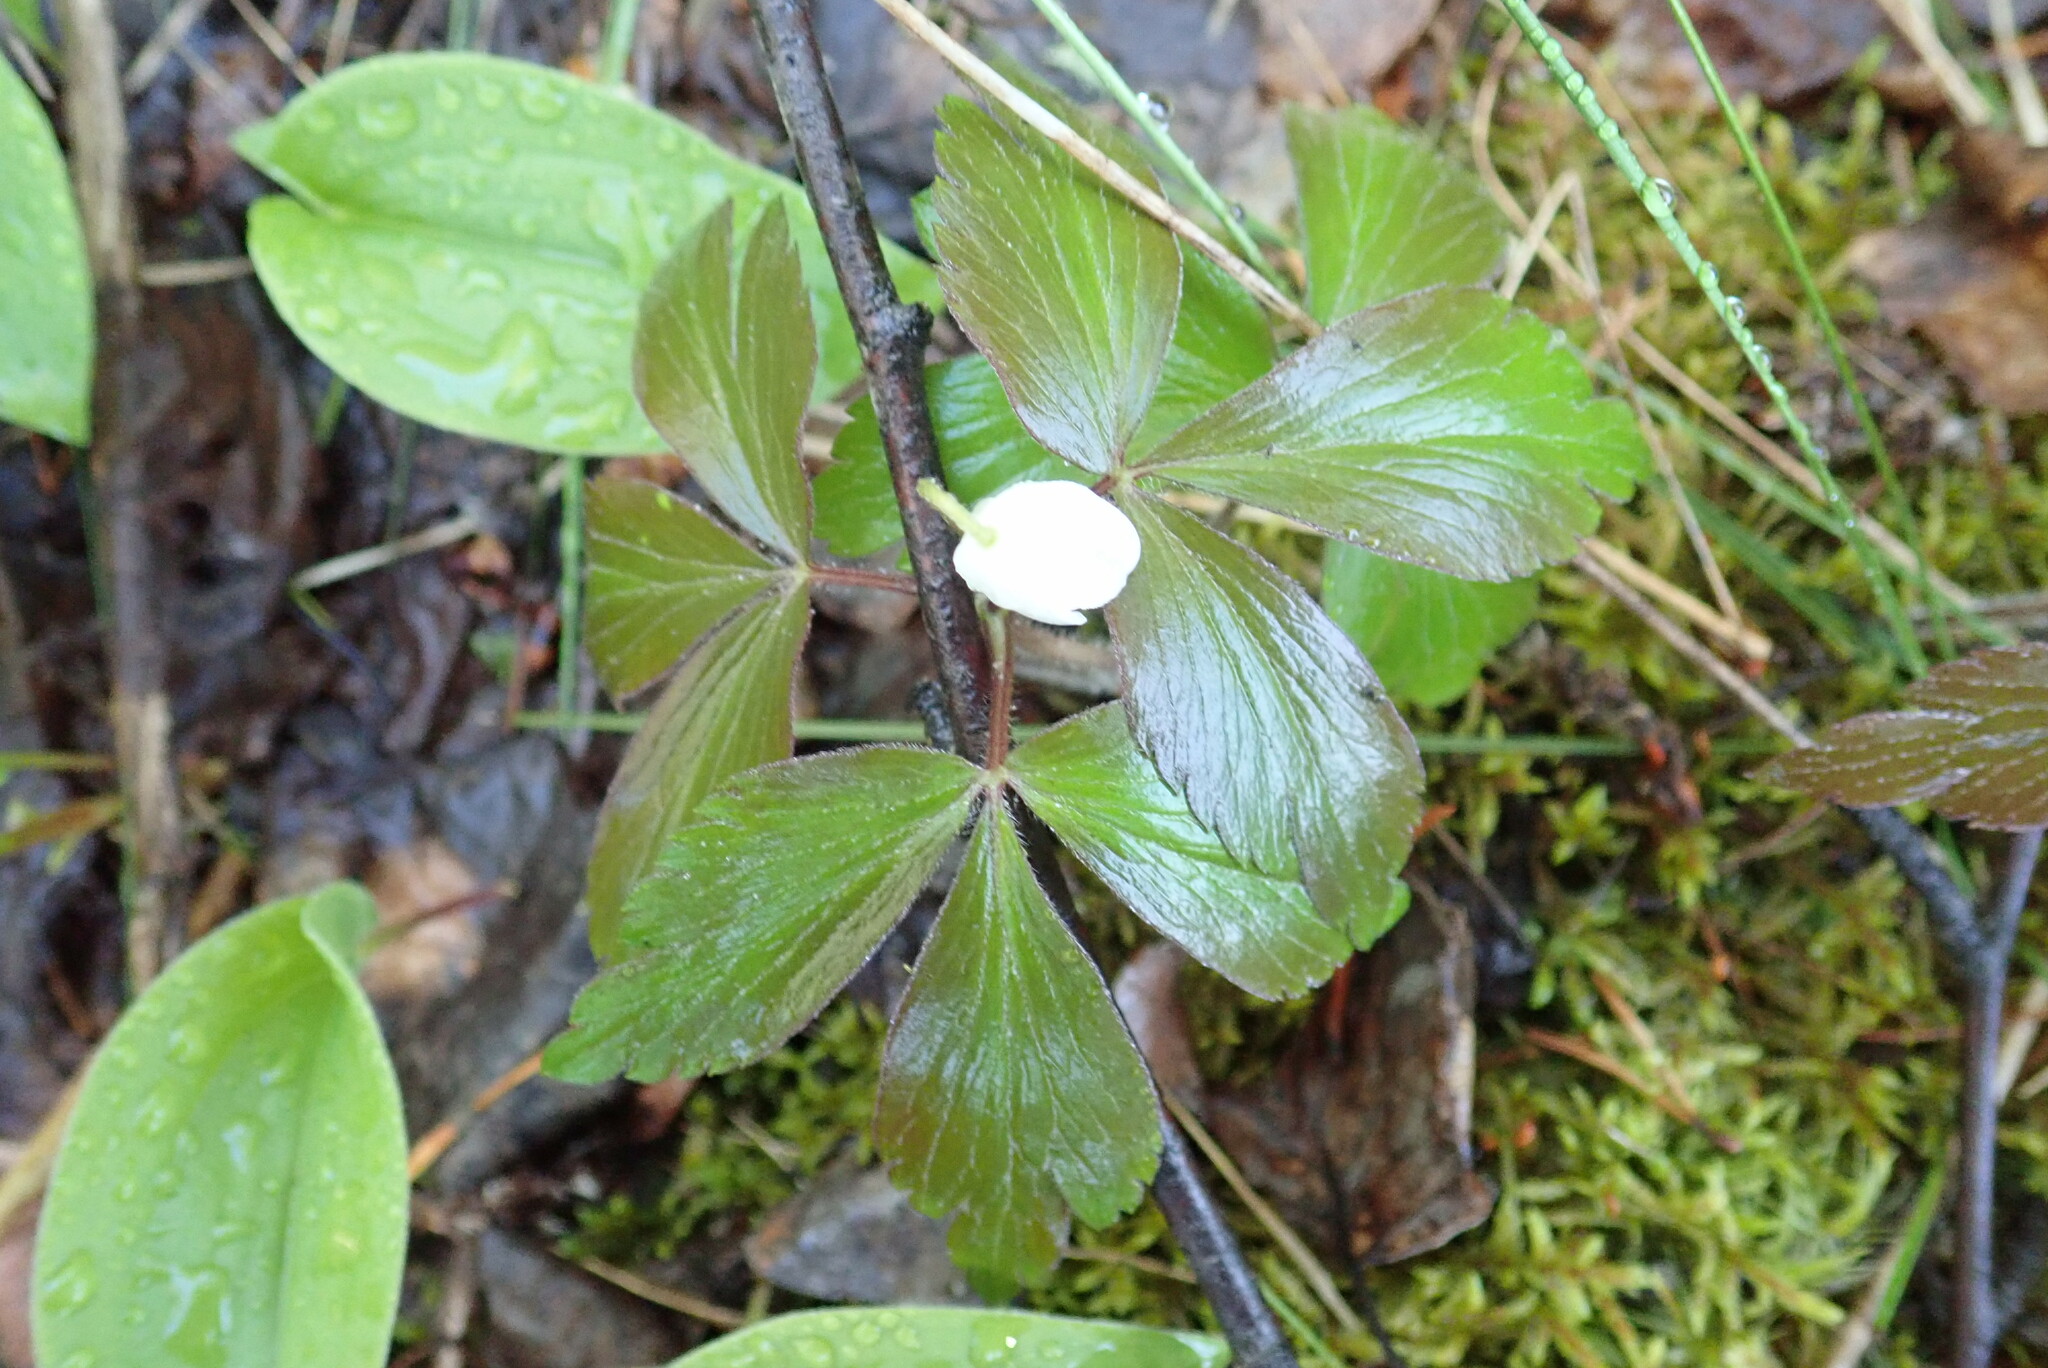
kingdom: Plantae
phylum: Tracheophyta
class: Magnoliopsida
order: Ranunculales
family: Ranunculaceae
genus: Anemone
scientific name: Anemone quinquefolia
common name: Wood anemone
